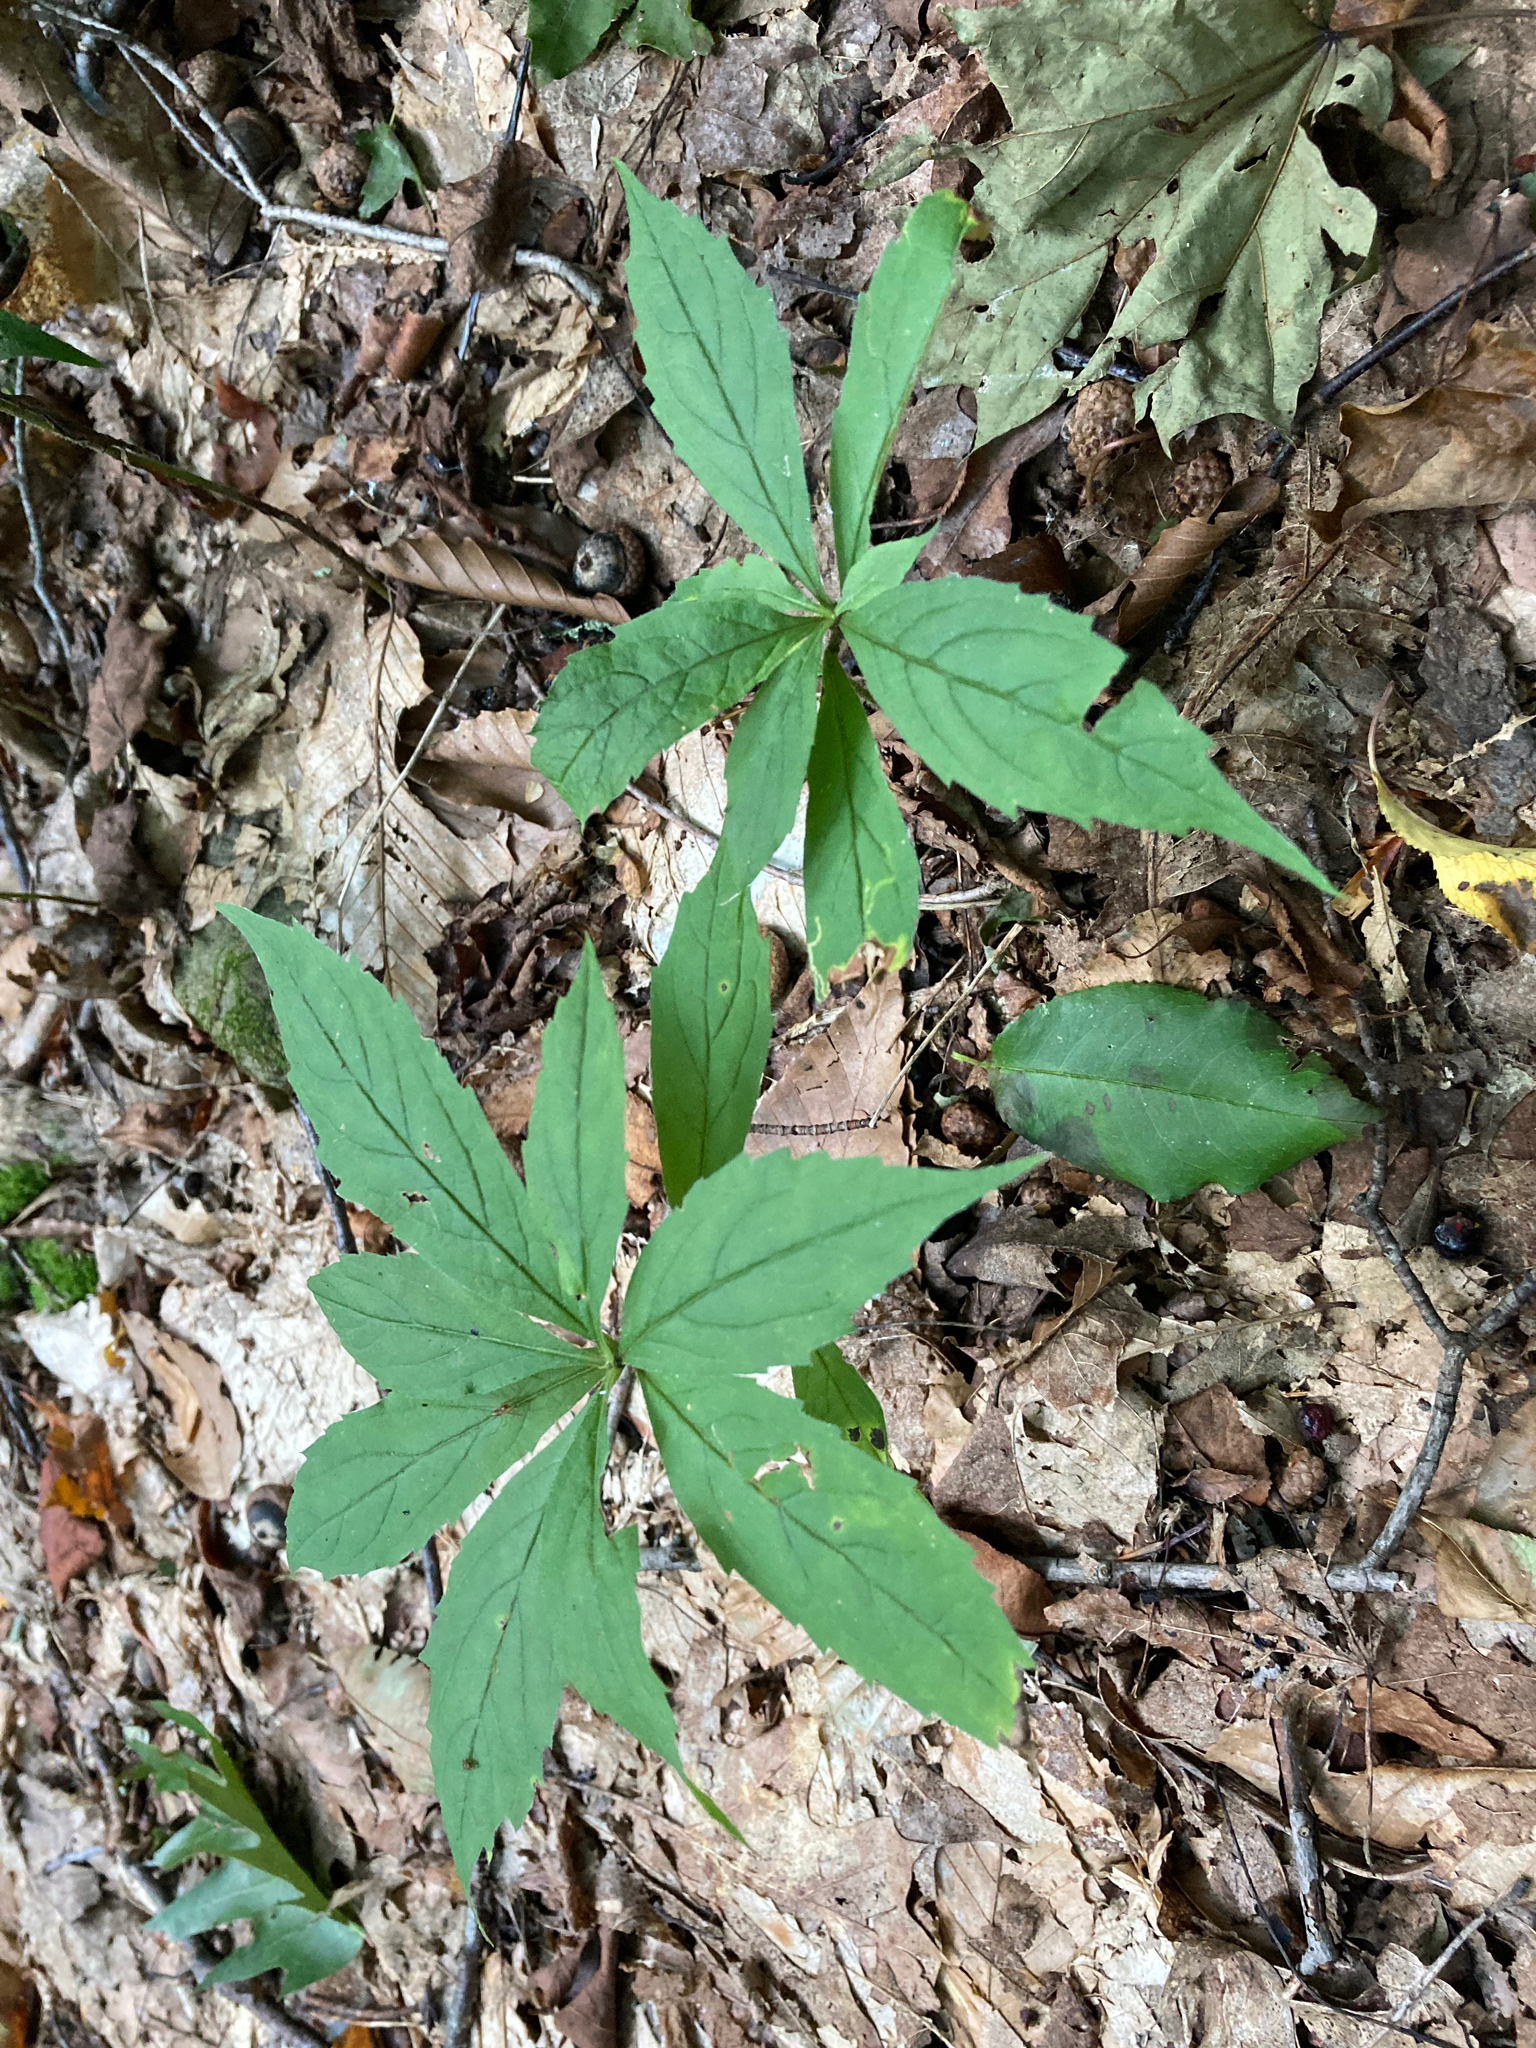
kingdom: Plantae
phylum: Tracheophyta
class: Magnoliopsida
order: Asterales
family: Asteraceae
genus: Oclemena
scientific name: Oclemena acuminata
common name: Mountain aster
